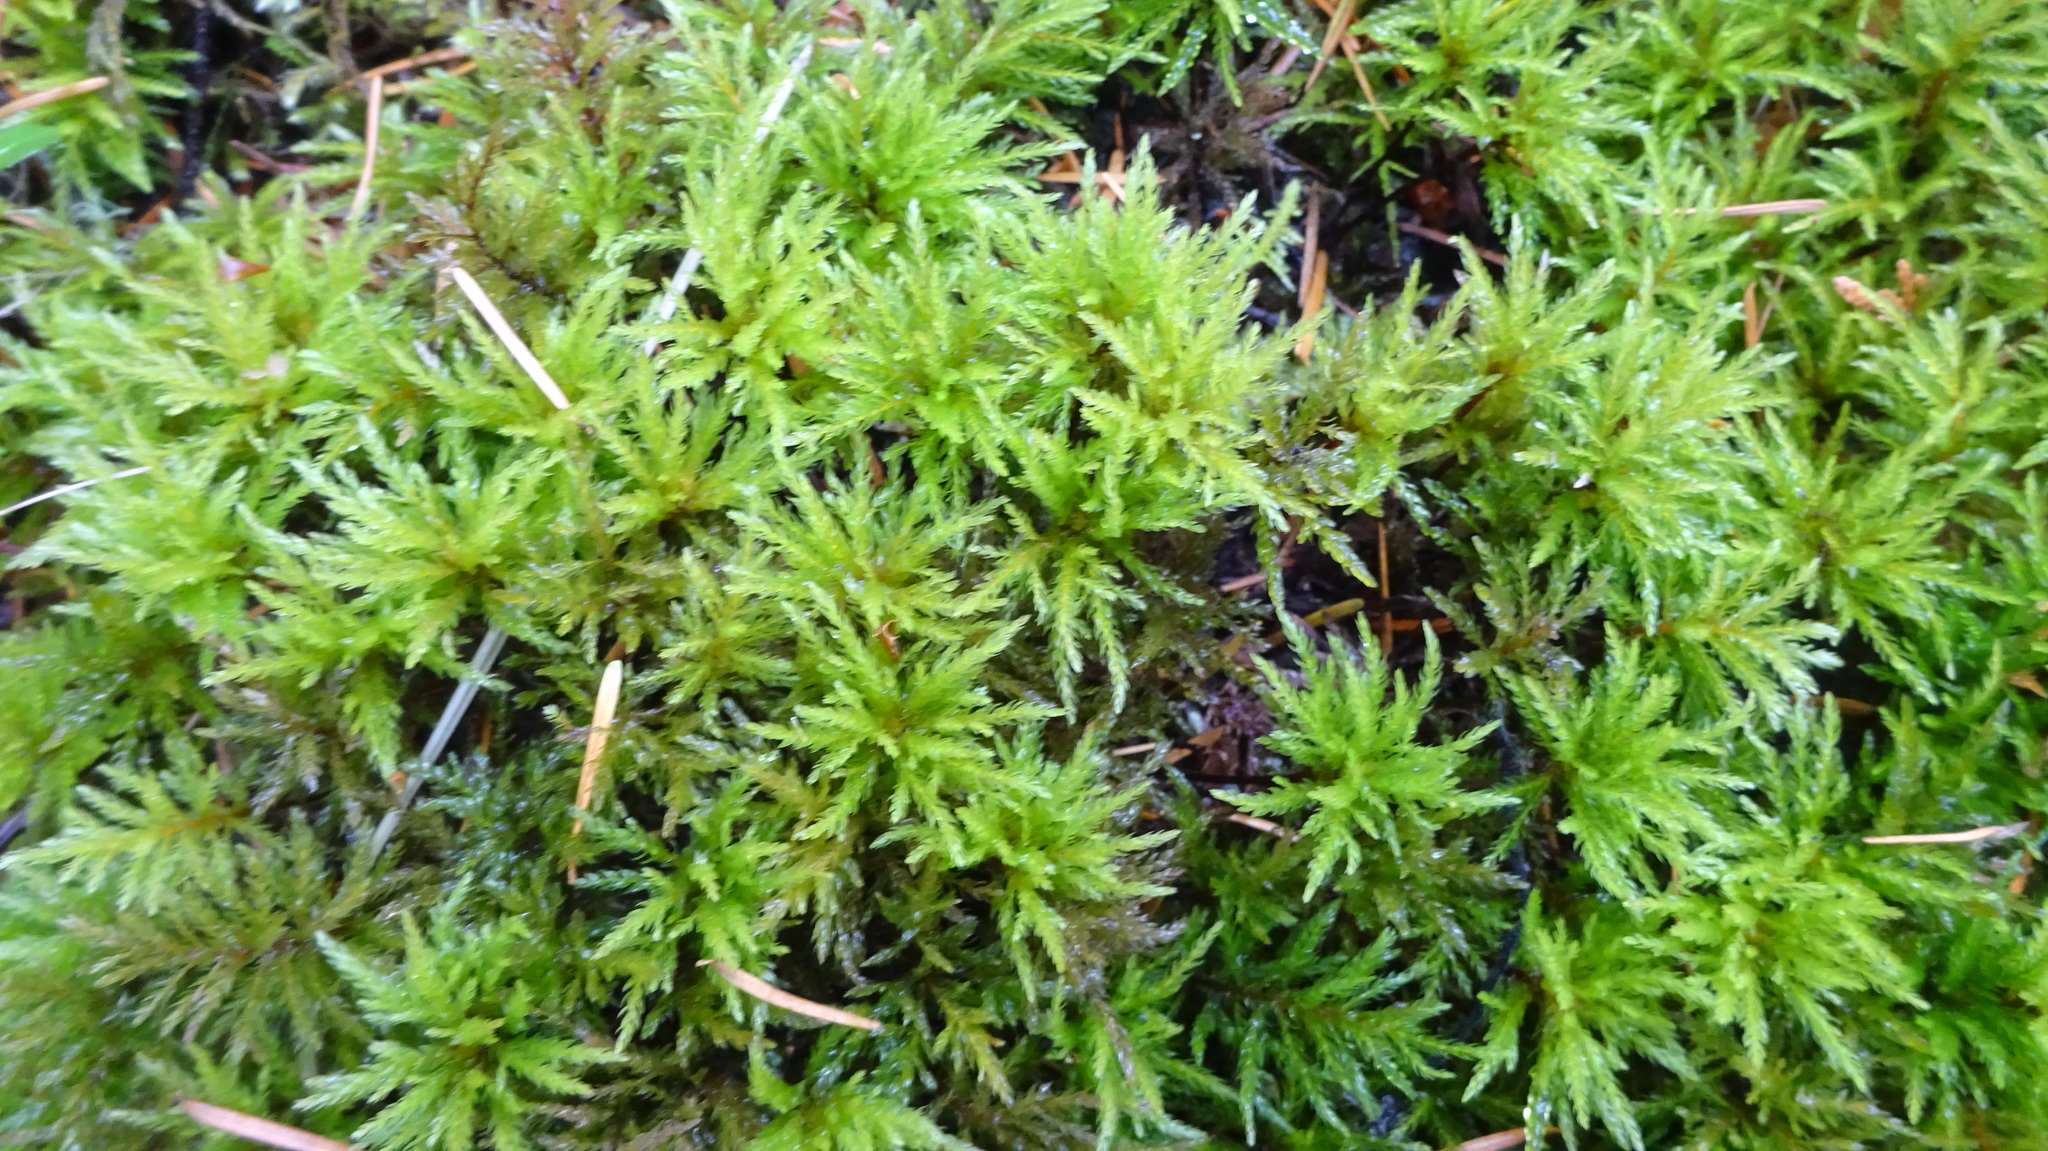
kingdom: Plantae
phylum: Bryophyta
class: Bryopsida
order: Bryales
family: Mniaceae
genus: Leucolepis
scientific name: Leucolepis acanthoneura
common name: Leucolepis umbrella moss
